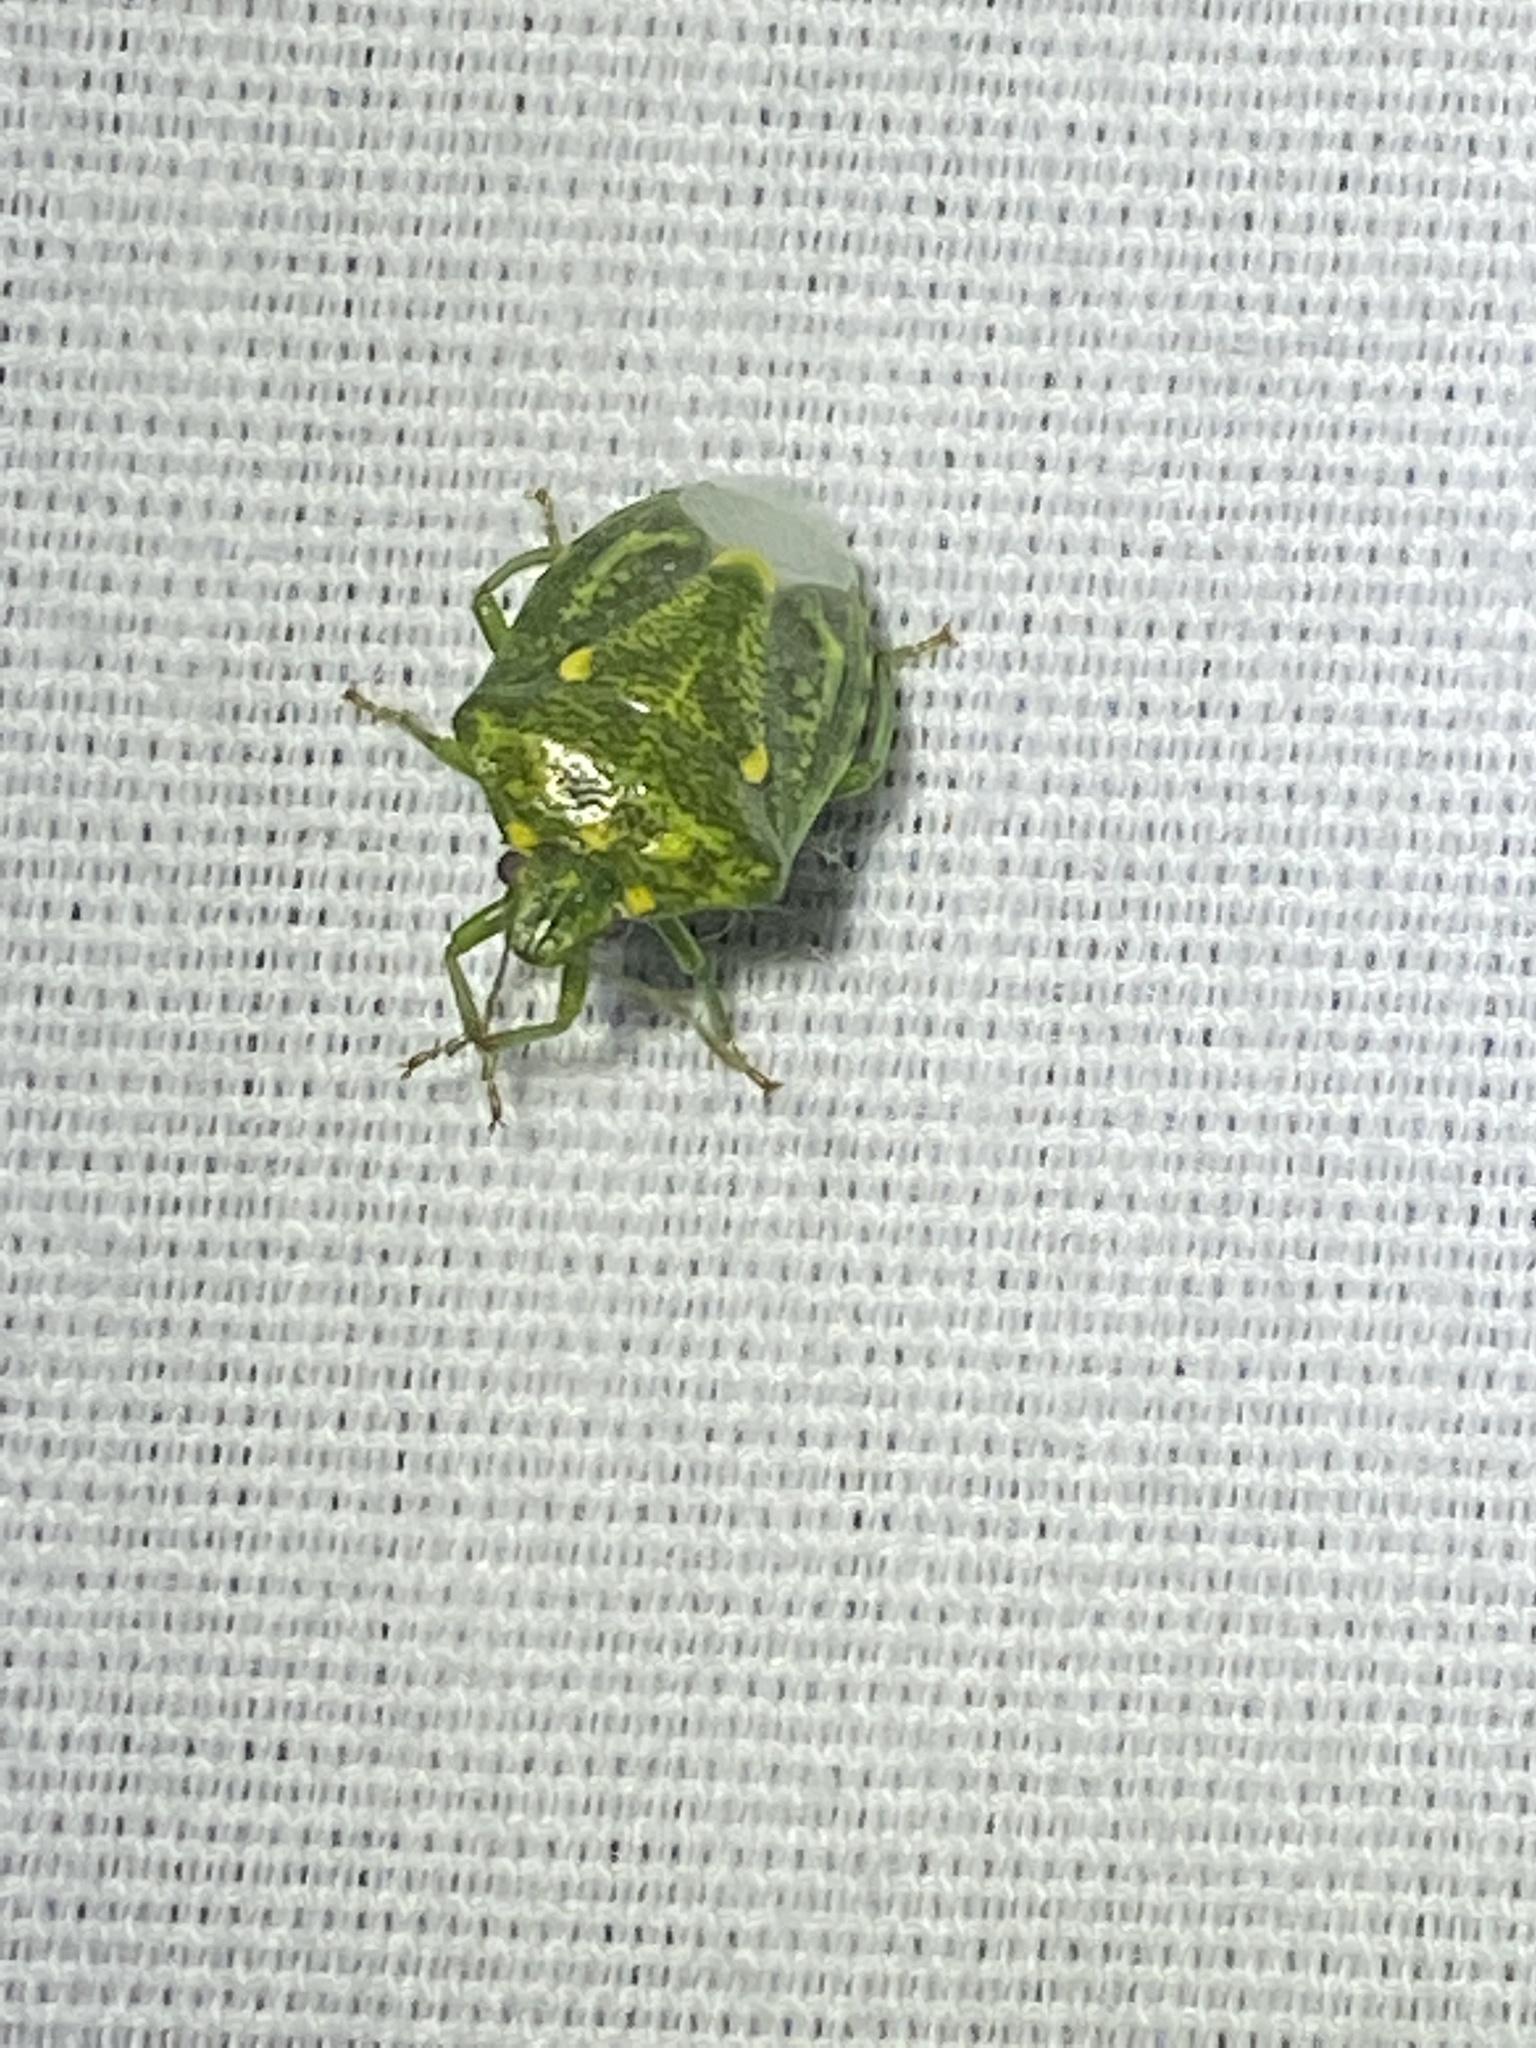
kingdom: Animalia
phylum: Arthropoda
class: Insecta
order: Hemiptera
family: Pentatomidae
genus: Banasa
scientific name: Banasa euchlora
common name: Cedar berry bug
